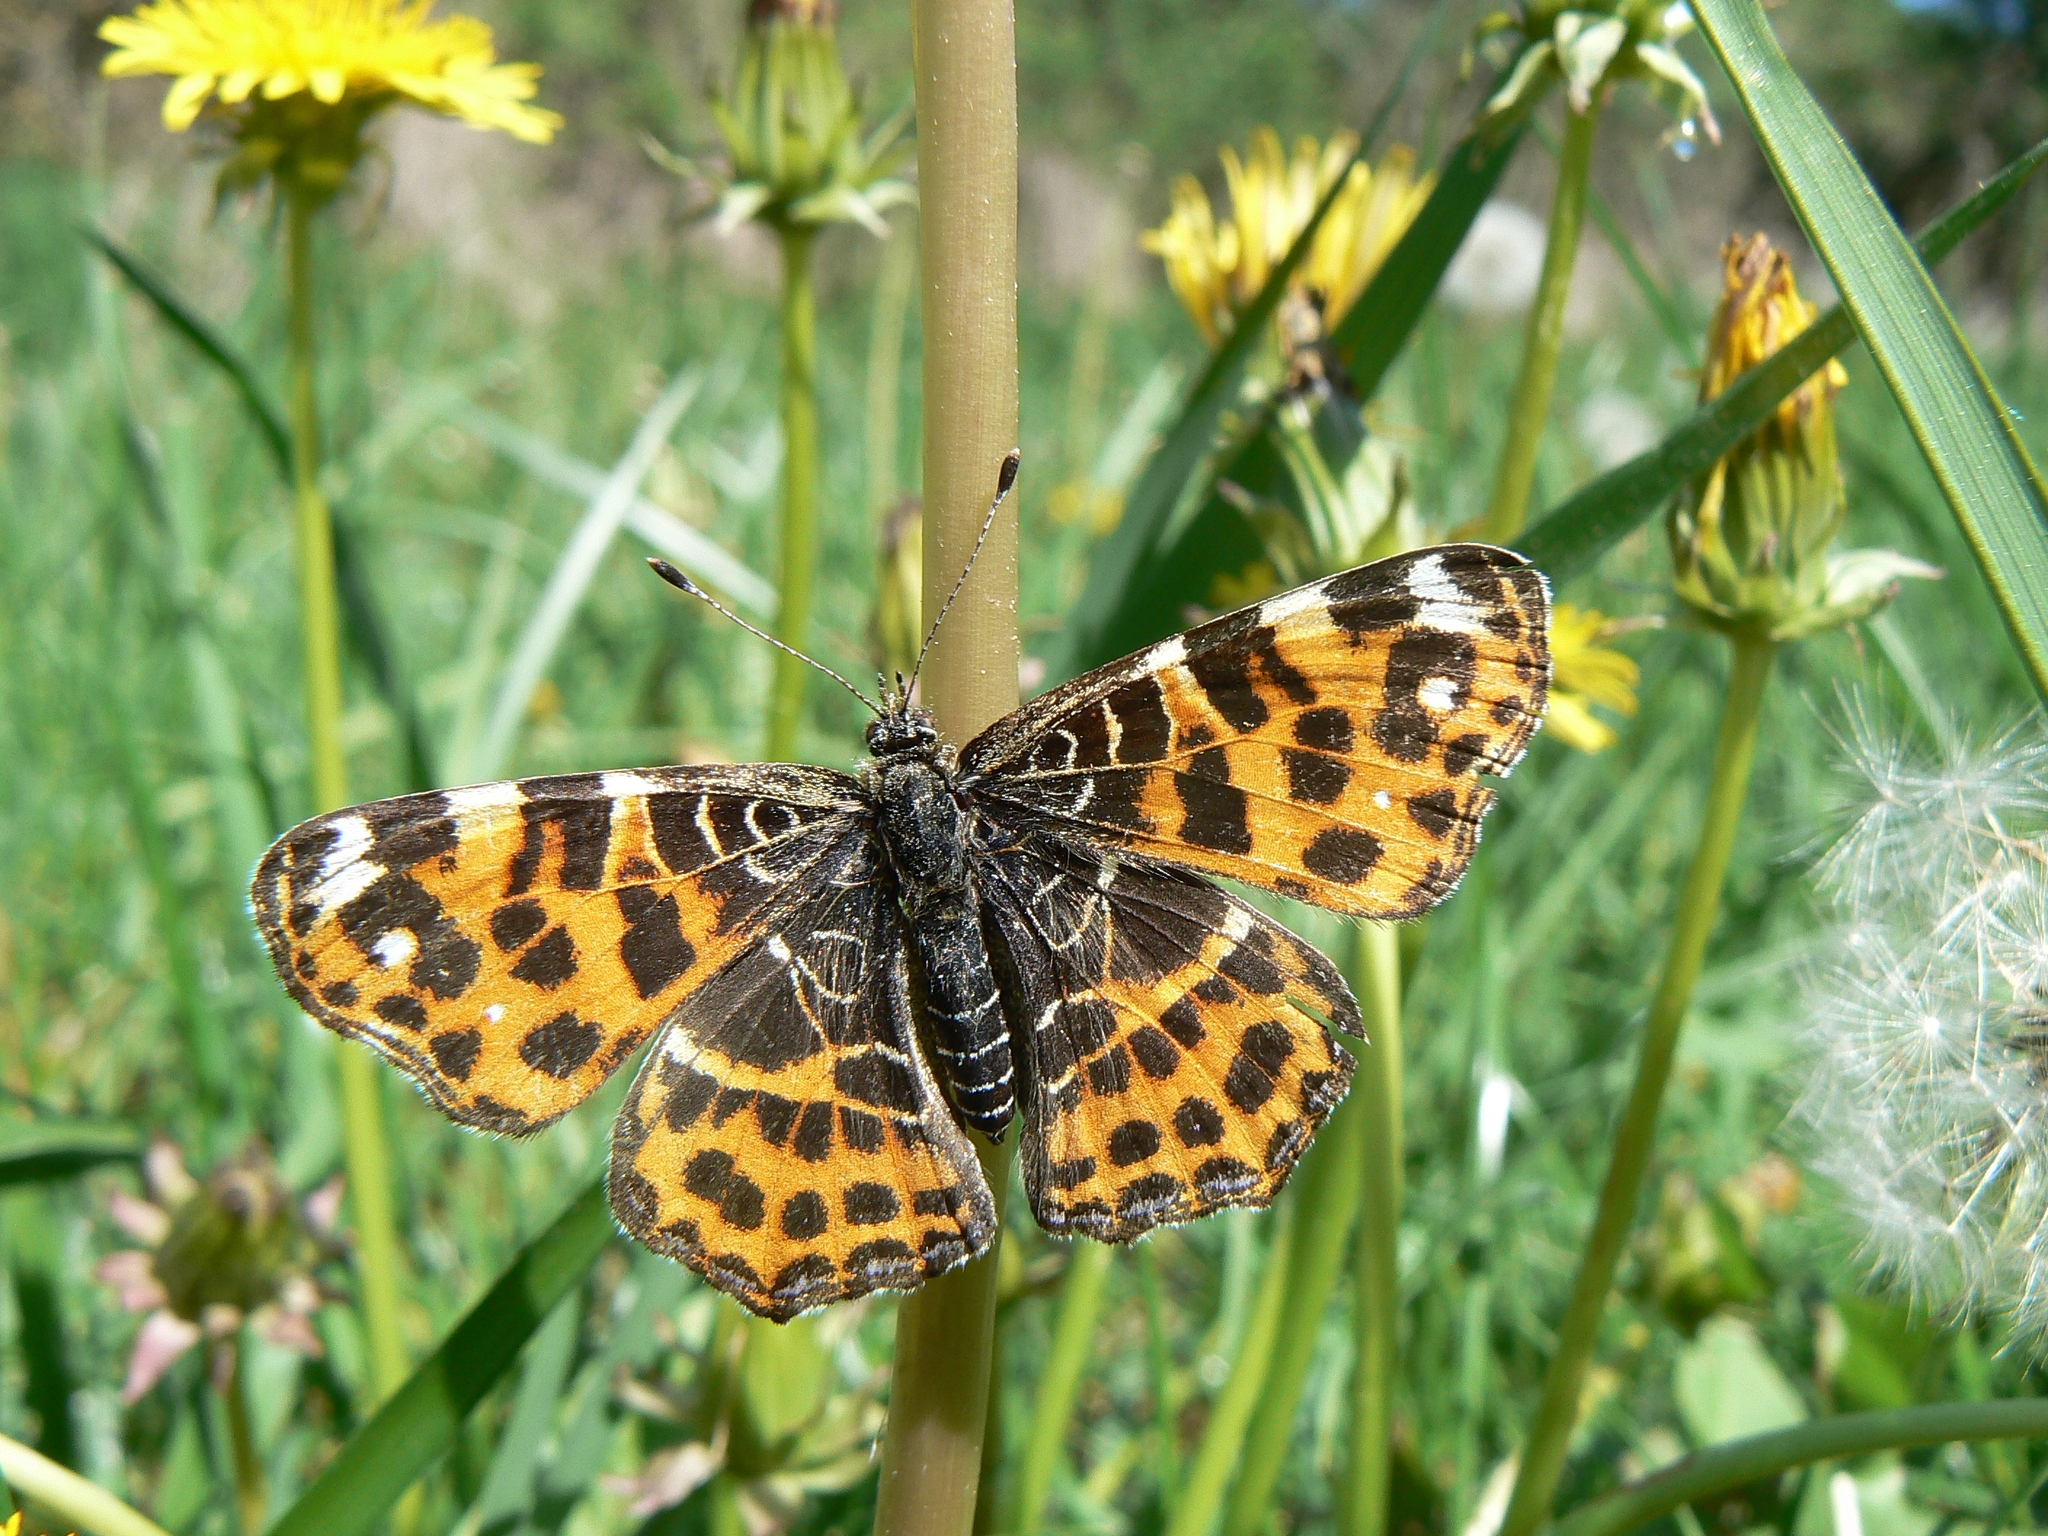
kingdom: Animalia
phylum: Arthropoda
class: Insecta
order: Lepidoptera
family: Nymphalidae
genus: Araschnia
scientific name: Araschnia levana
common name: Map butterfly
